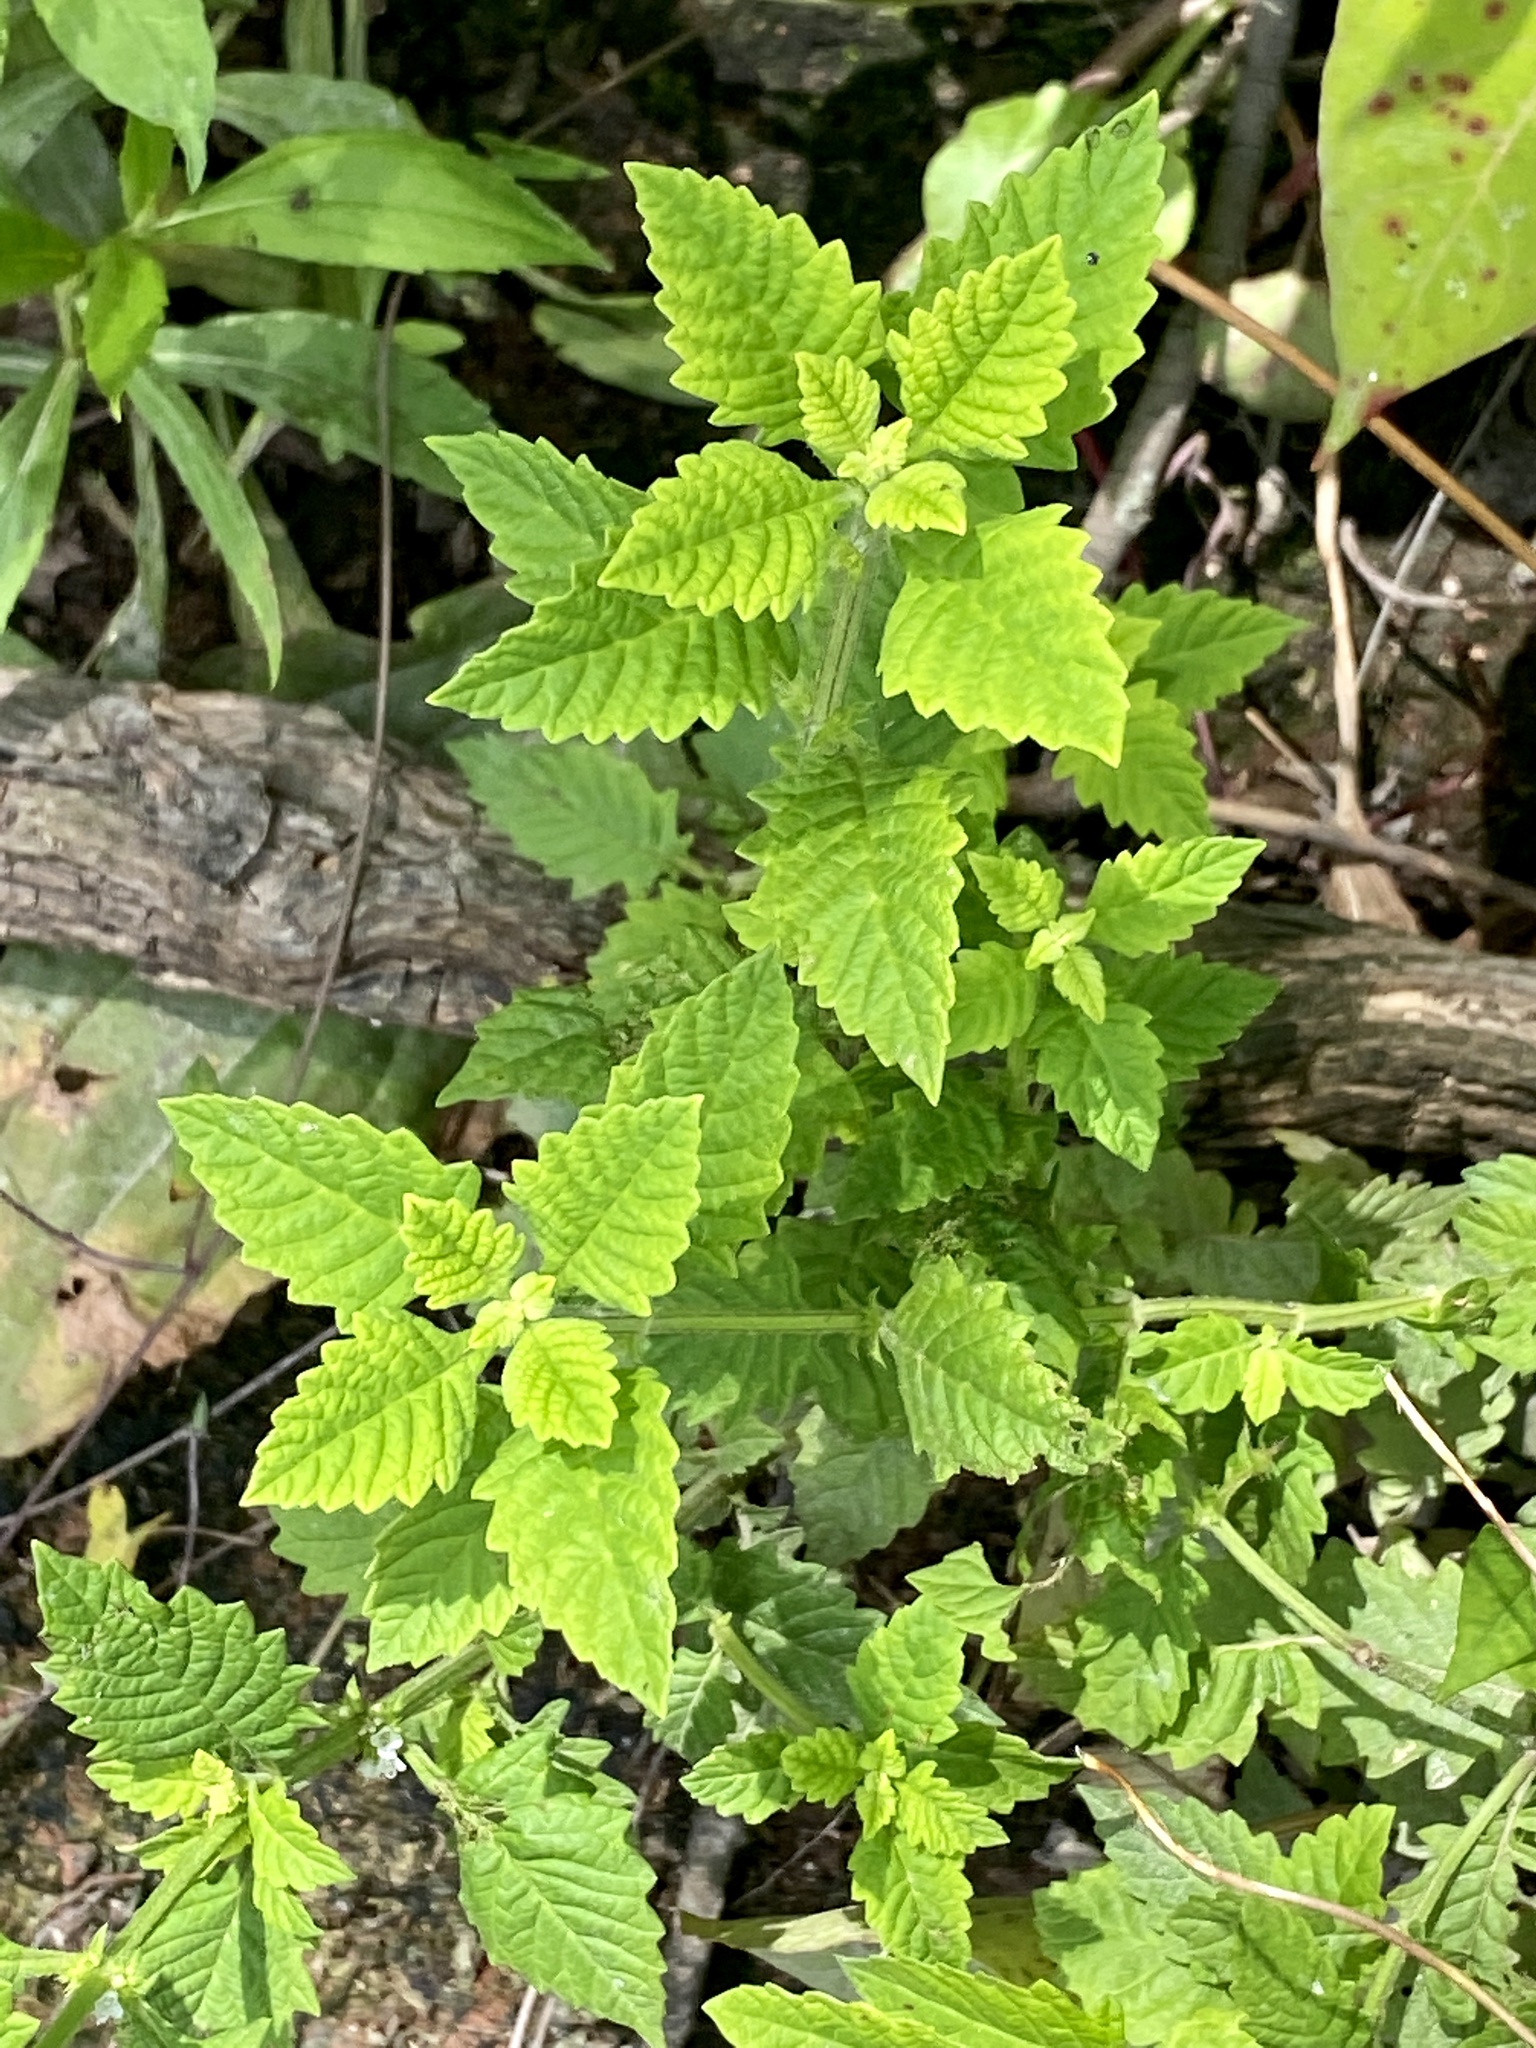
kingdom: Plantae
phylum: Tracheophyta
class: Magnoliopsida
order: Lamiales
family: Lamiaceae
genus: Lycopus
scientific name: Lycopus europaeus
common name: European bugleweed
